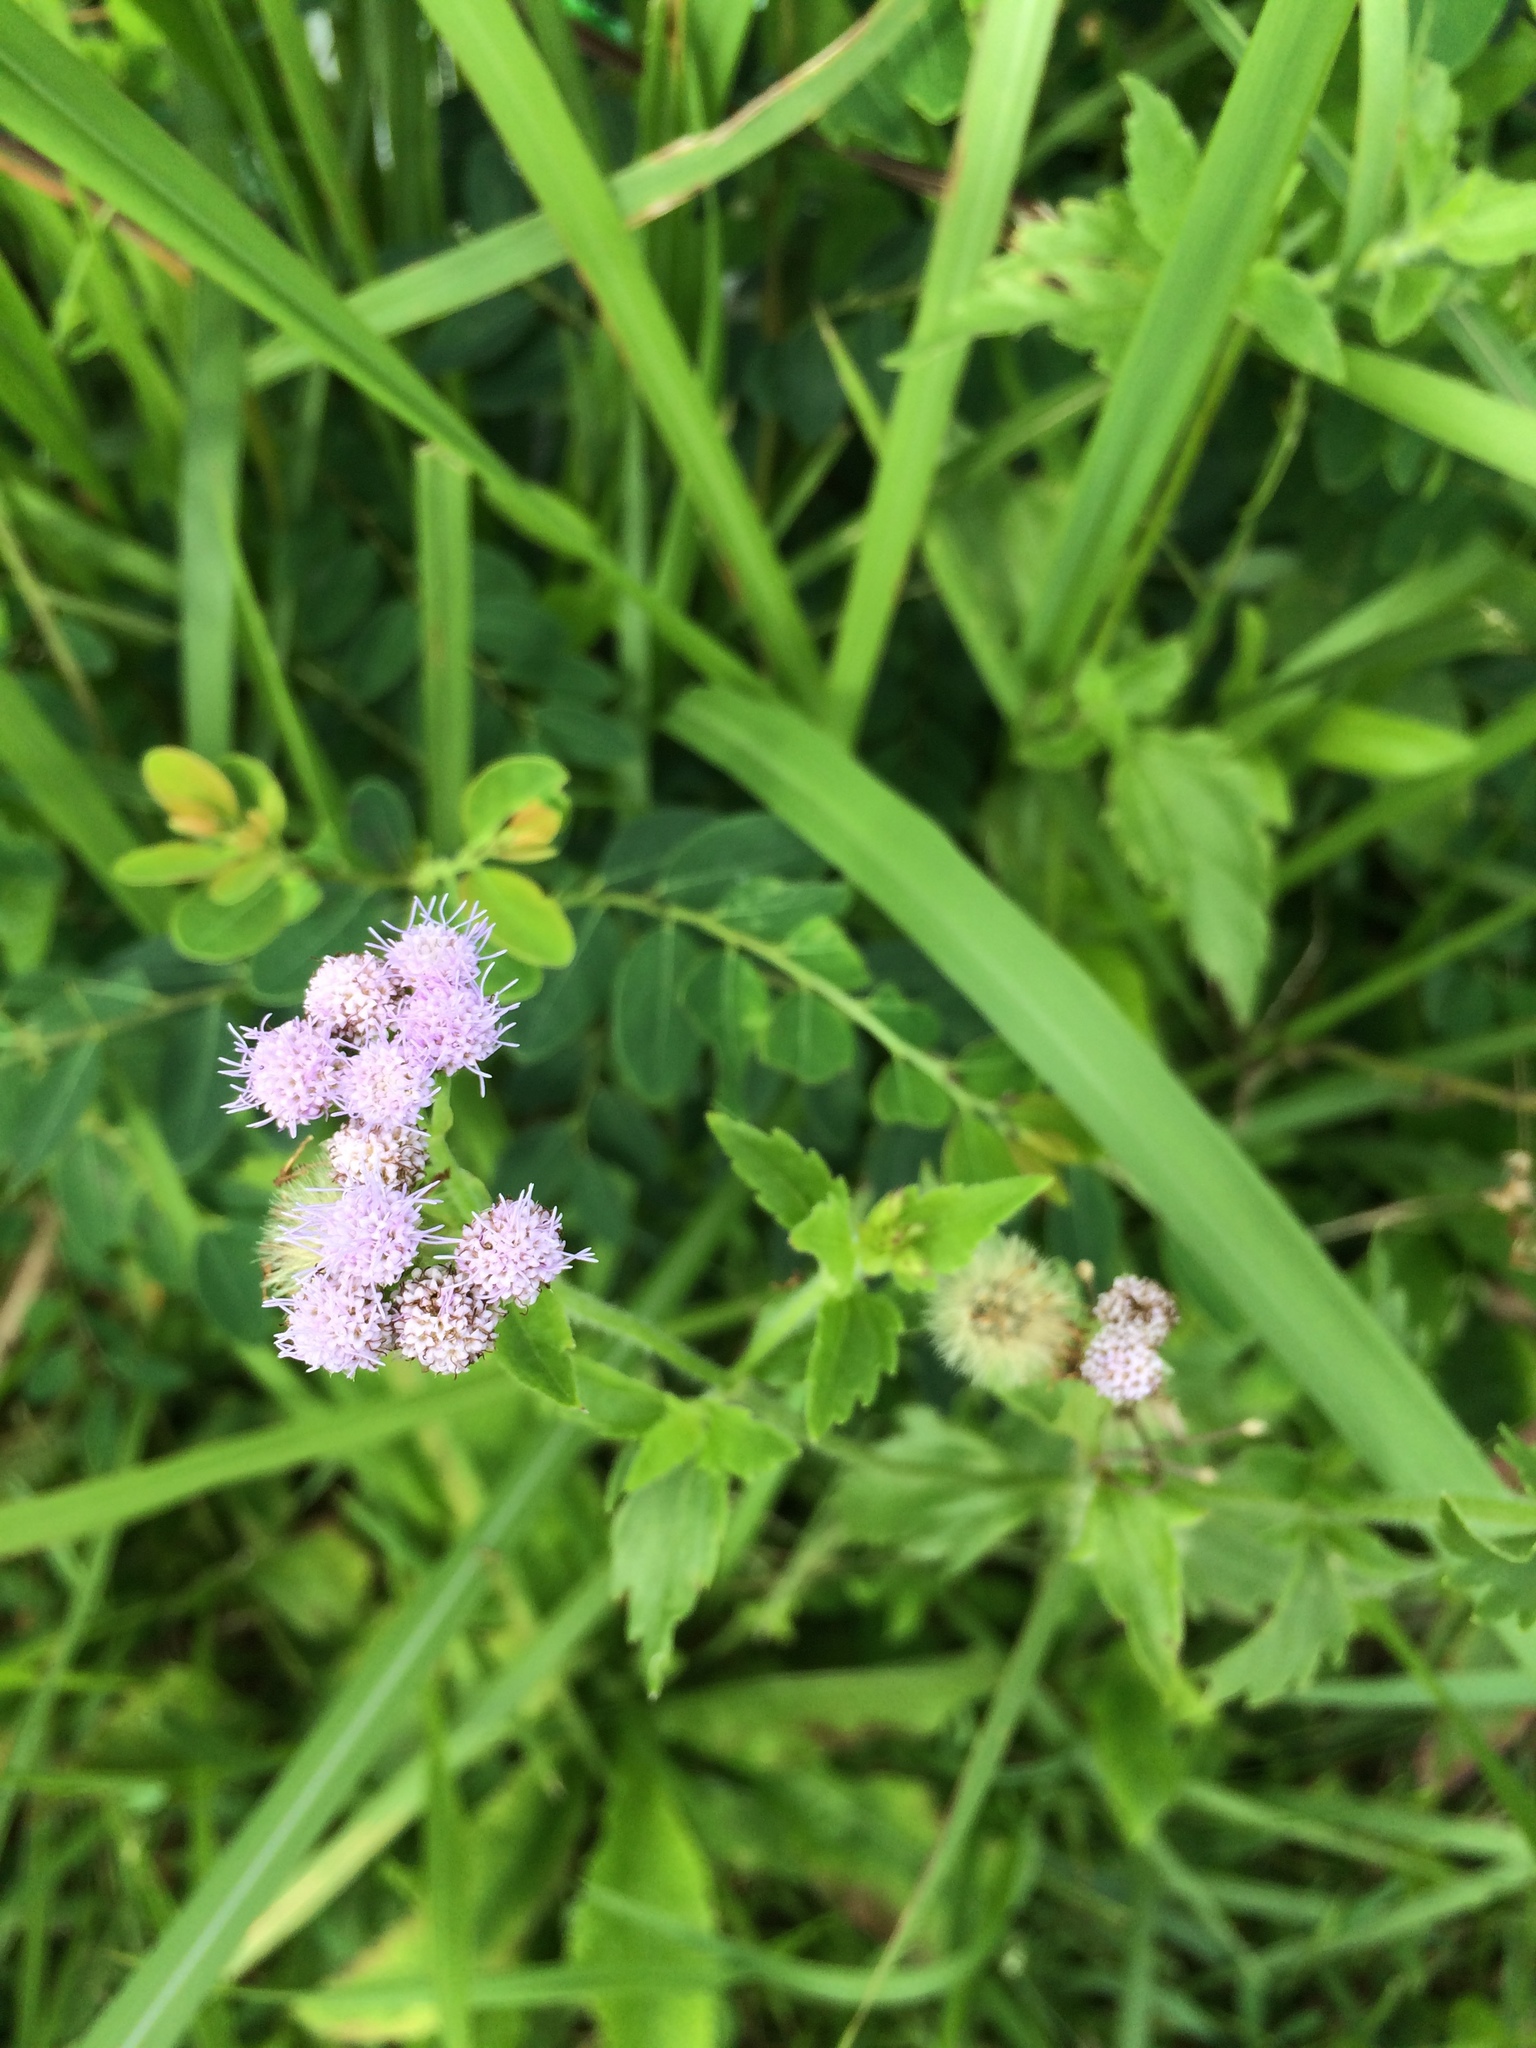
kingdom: Plantae
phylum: Tracheophyta
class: Magnoliopsida
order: Asterales
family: Asteraceae
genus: Praxelis
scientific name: Praxelis clematidea
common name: Praxelis
